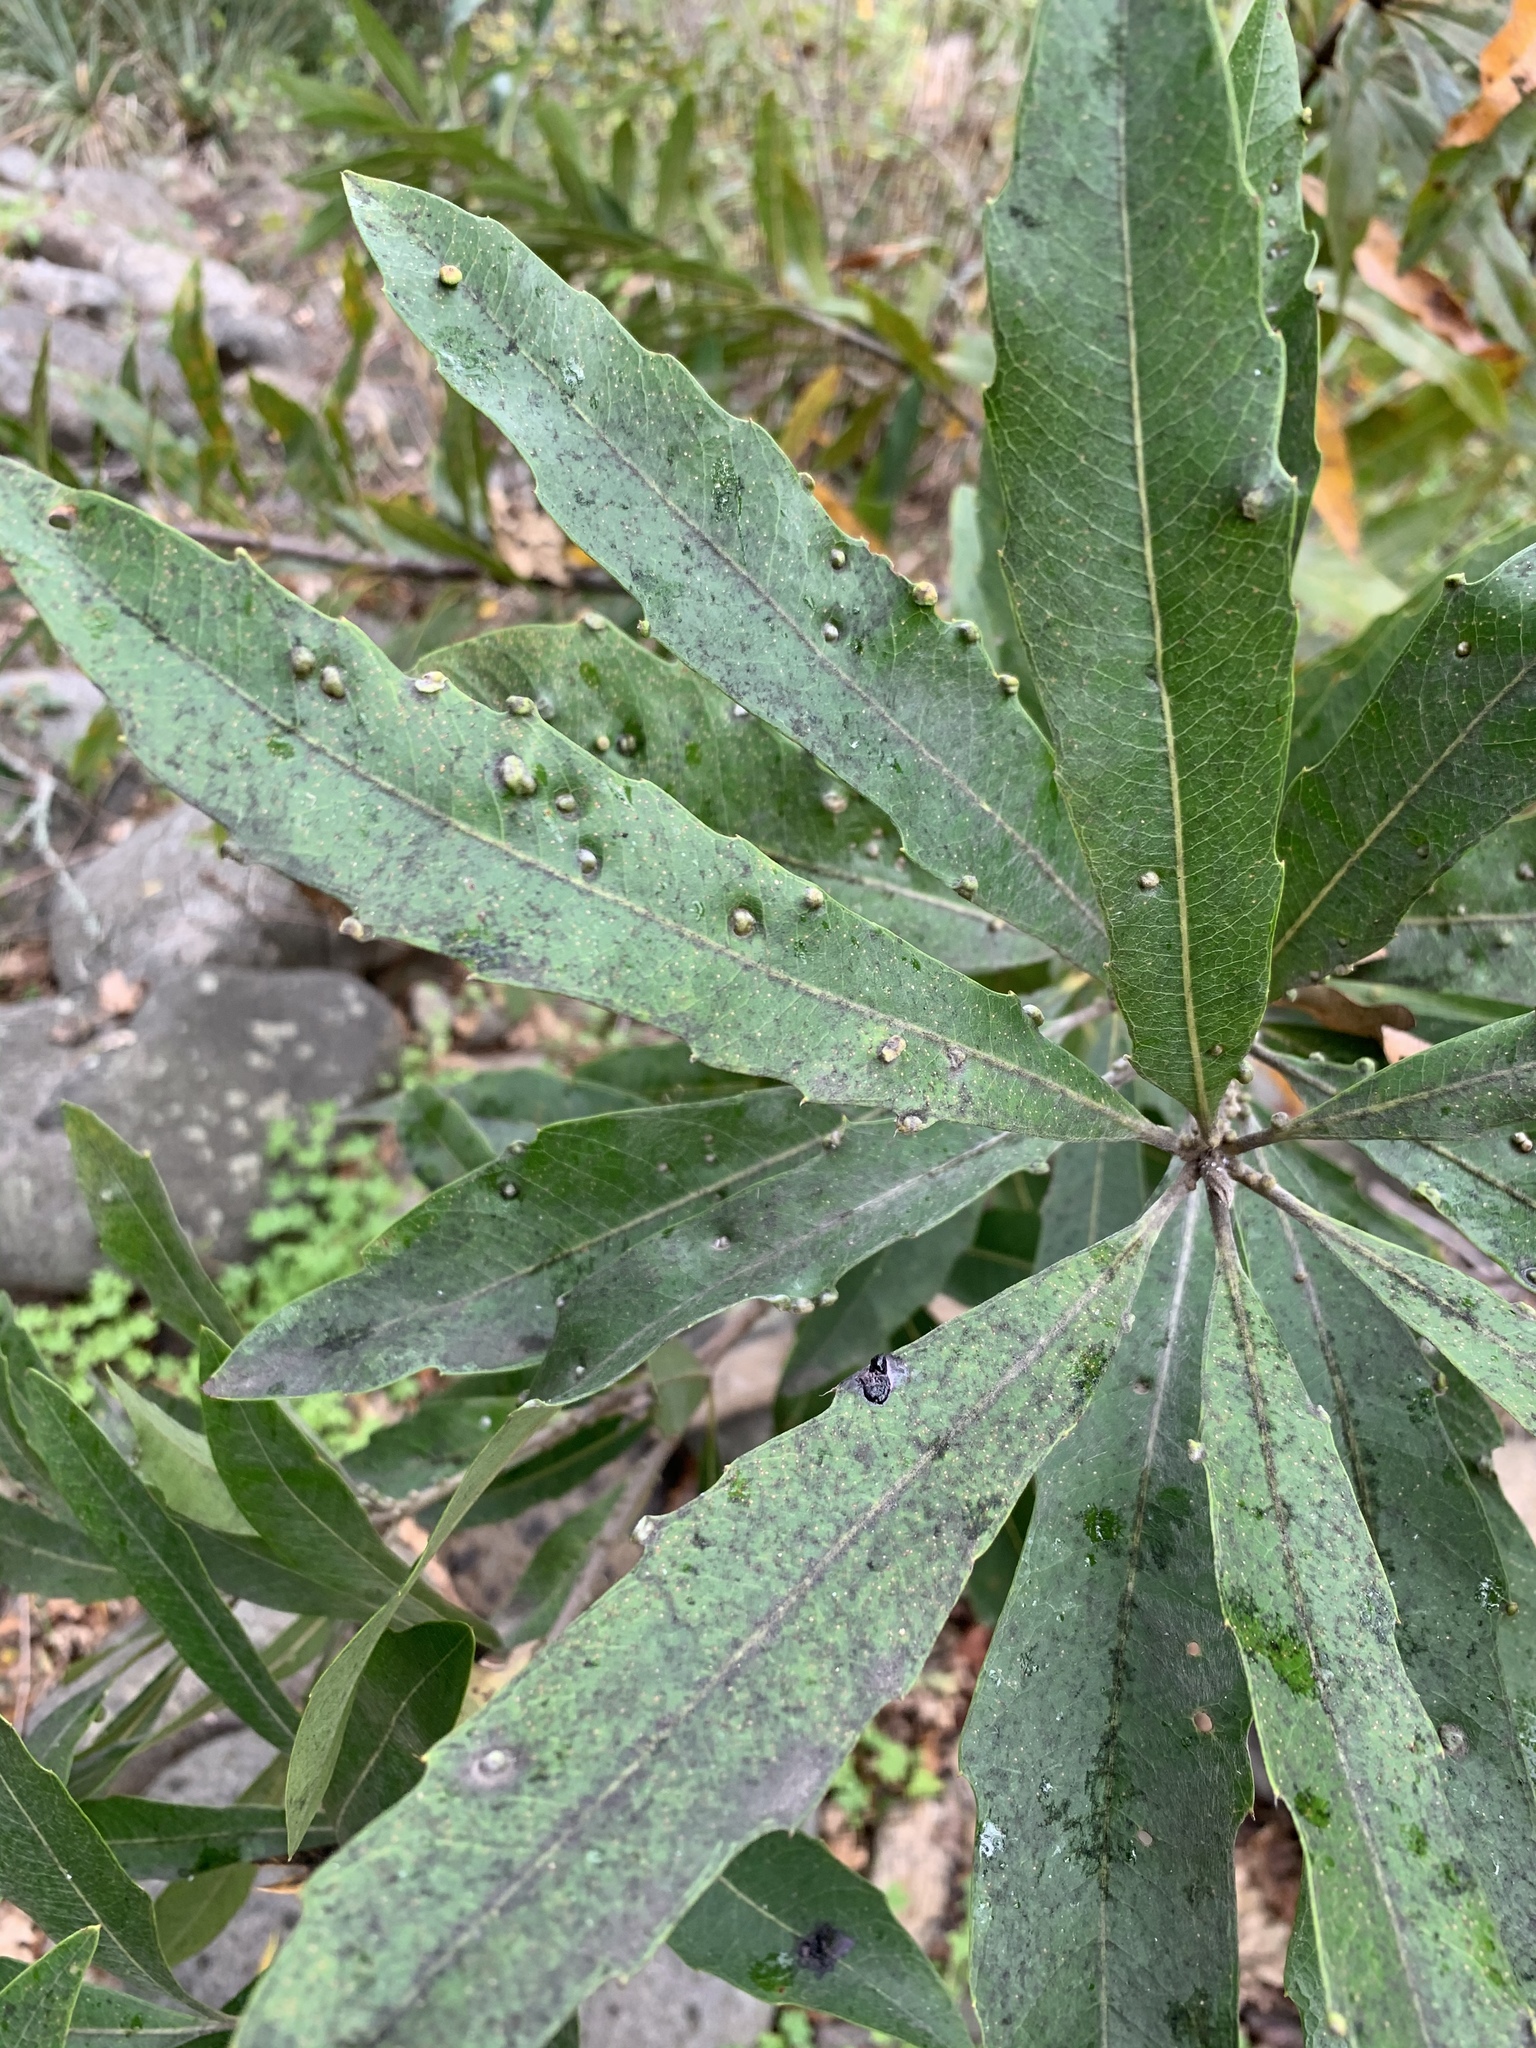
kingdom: Plantae
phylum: Tracheophyta
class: Magnoliopsida
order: Proteales
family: Proteaceae
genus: Brabejum
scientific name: Brabejum stellatifolium
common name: Wild almond
